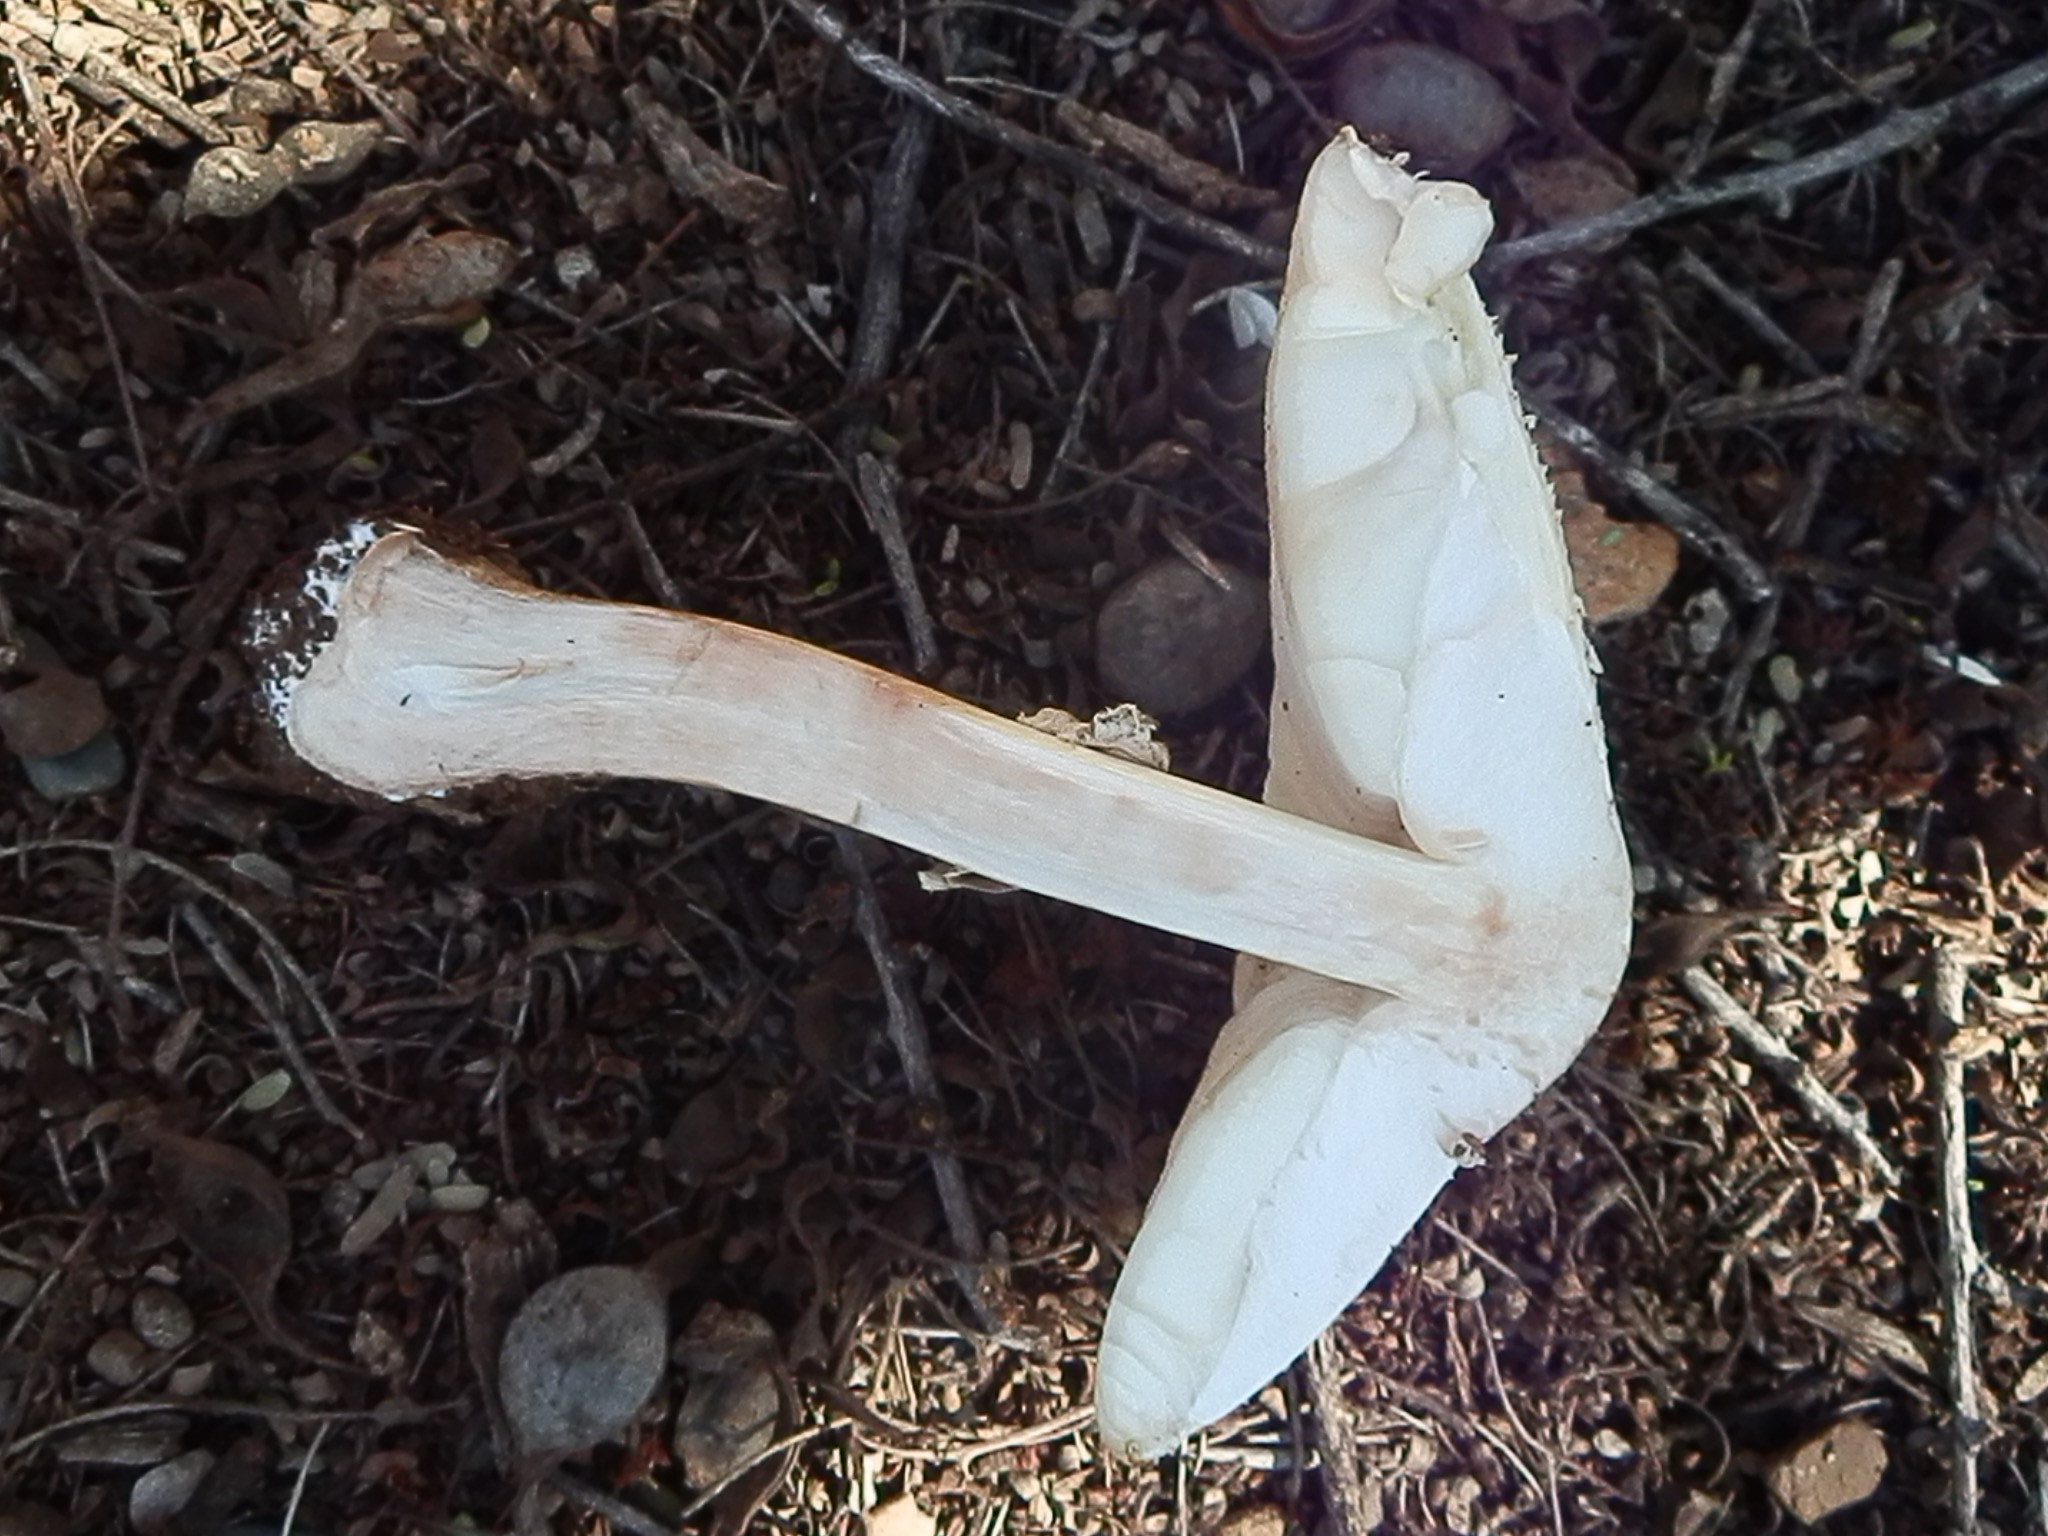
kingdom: Fungi
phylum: Basidiomycota
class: Agaricomycetes
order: Agaricales
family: Agaricaceae
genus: Chlorophyllum
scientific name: Chlorophyllum molybdites
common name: False parasol
